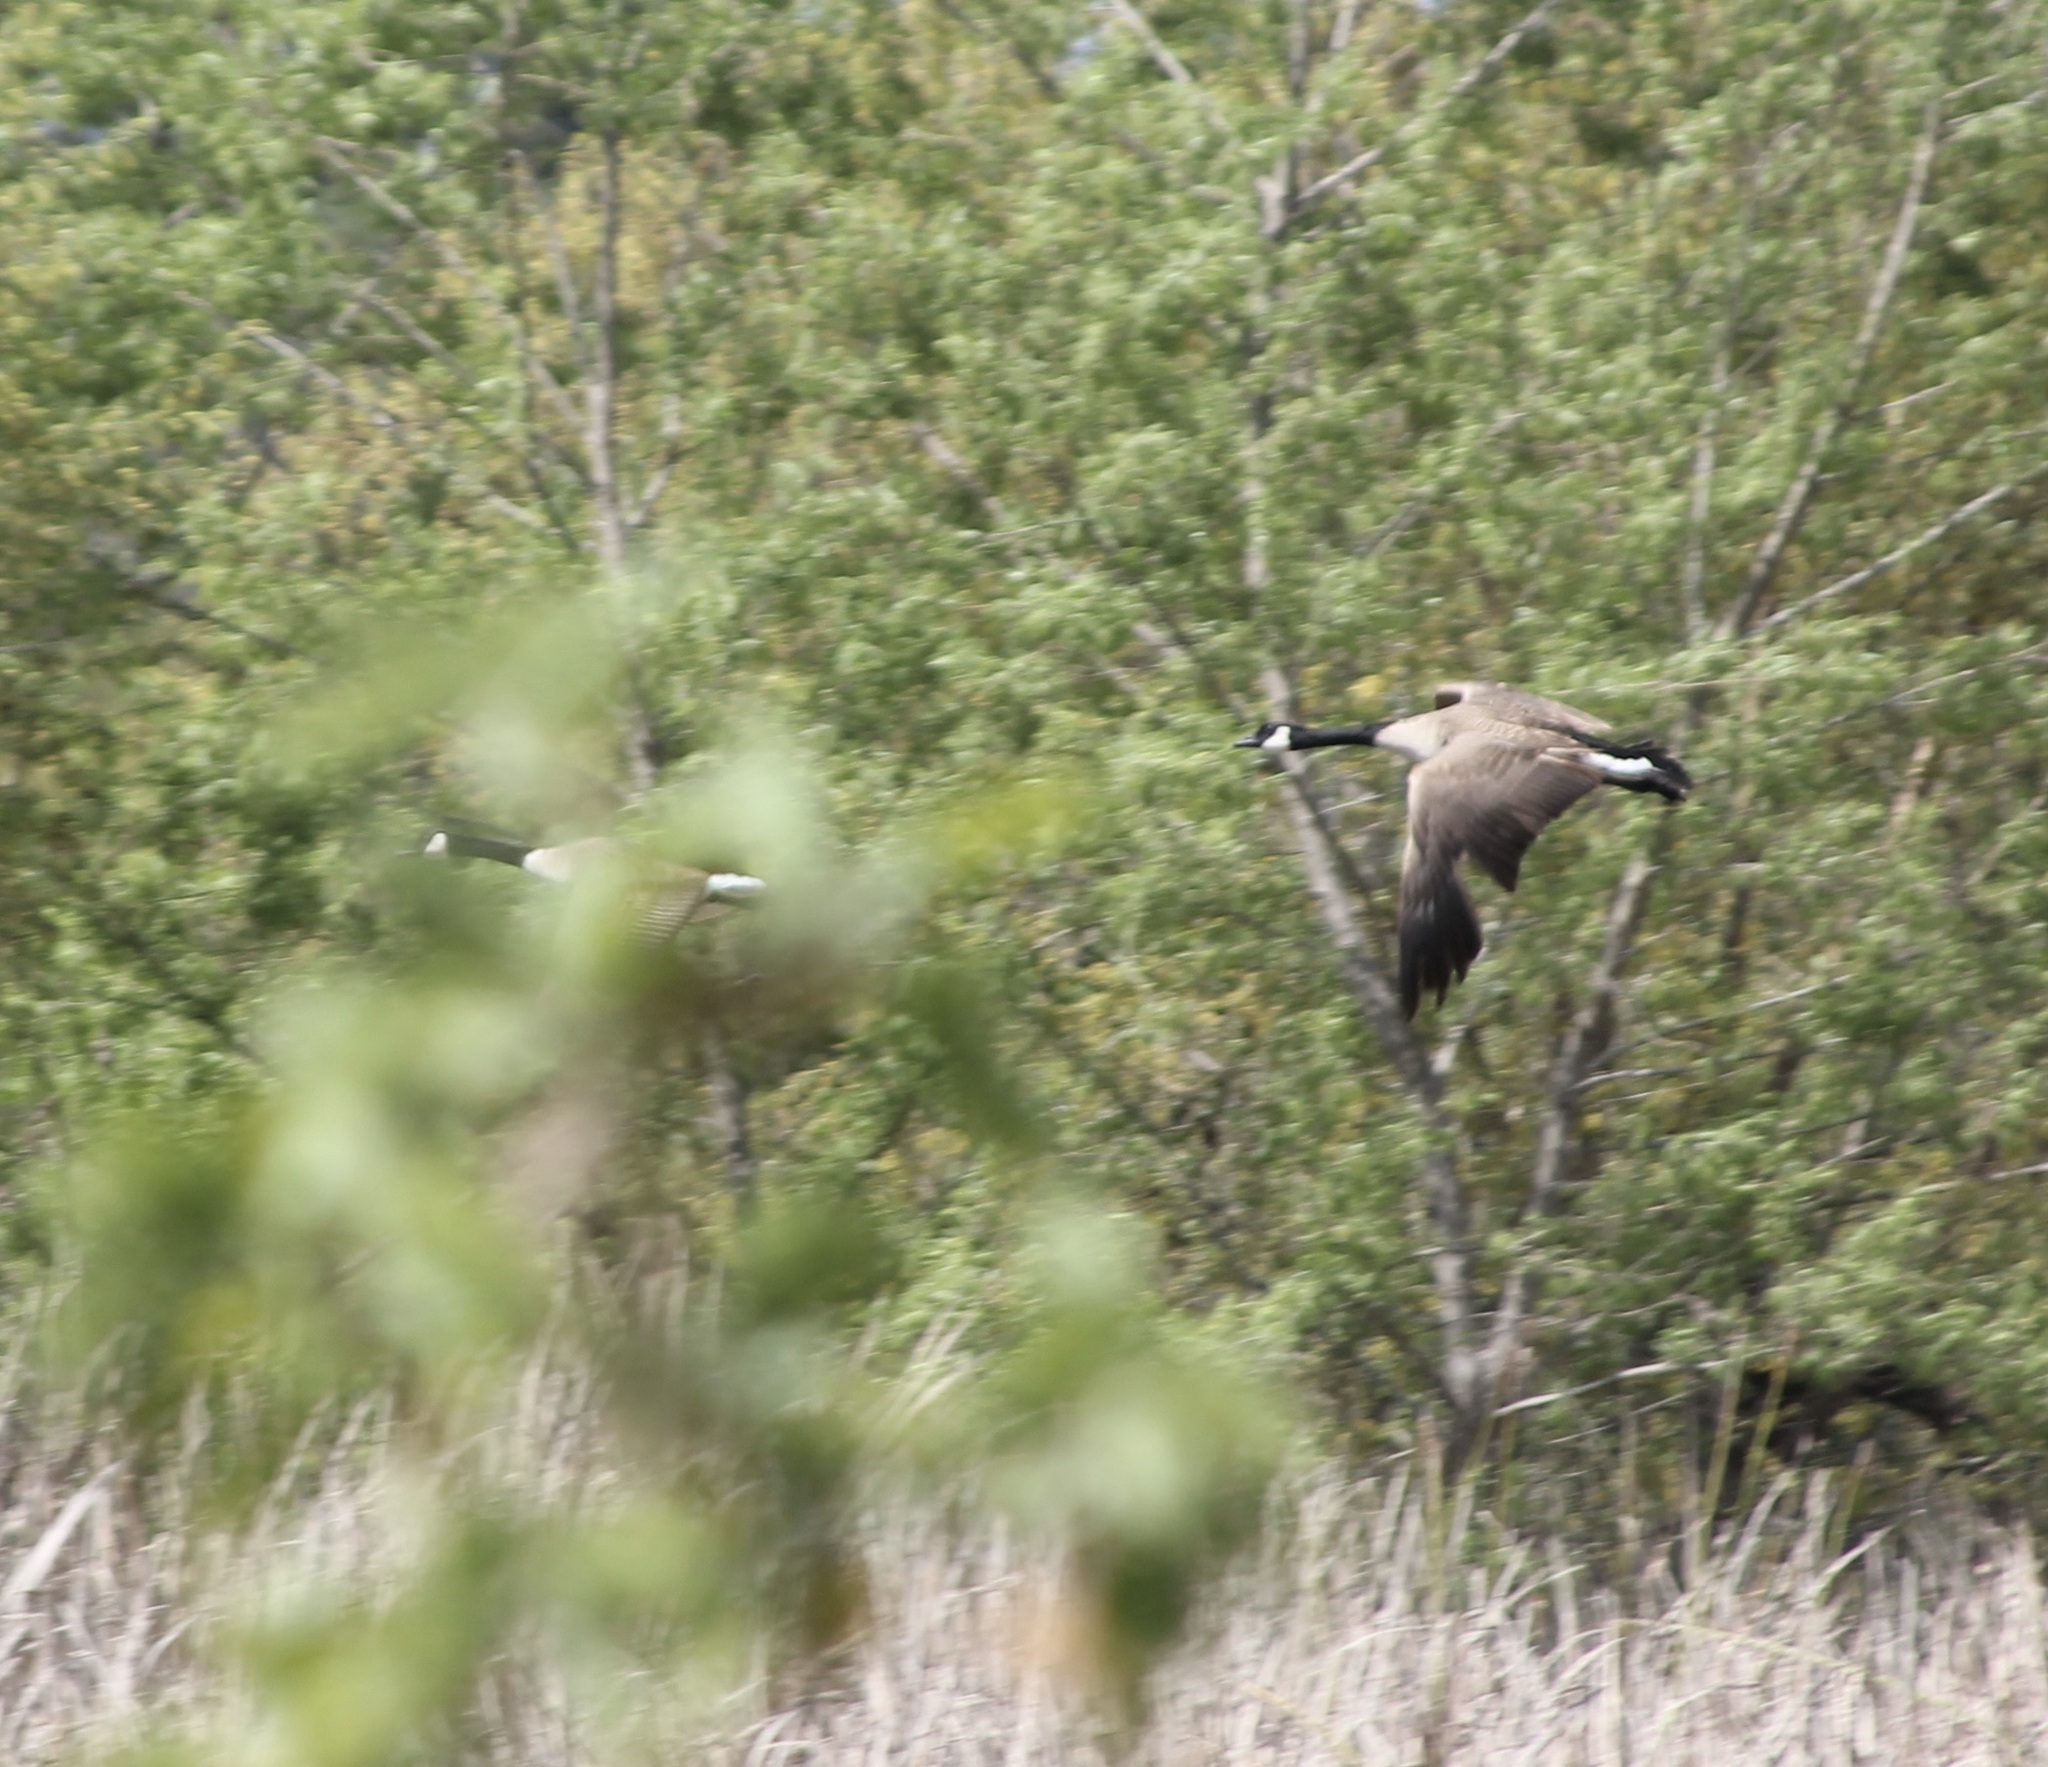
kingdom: Animalia
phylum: Chordata
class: Aves
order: Anseriformes
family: Anatidae
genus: Branta
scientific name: Branta canadensis
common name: Canada goose
